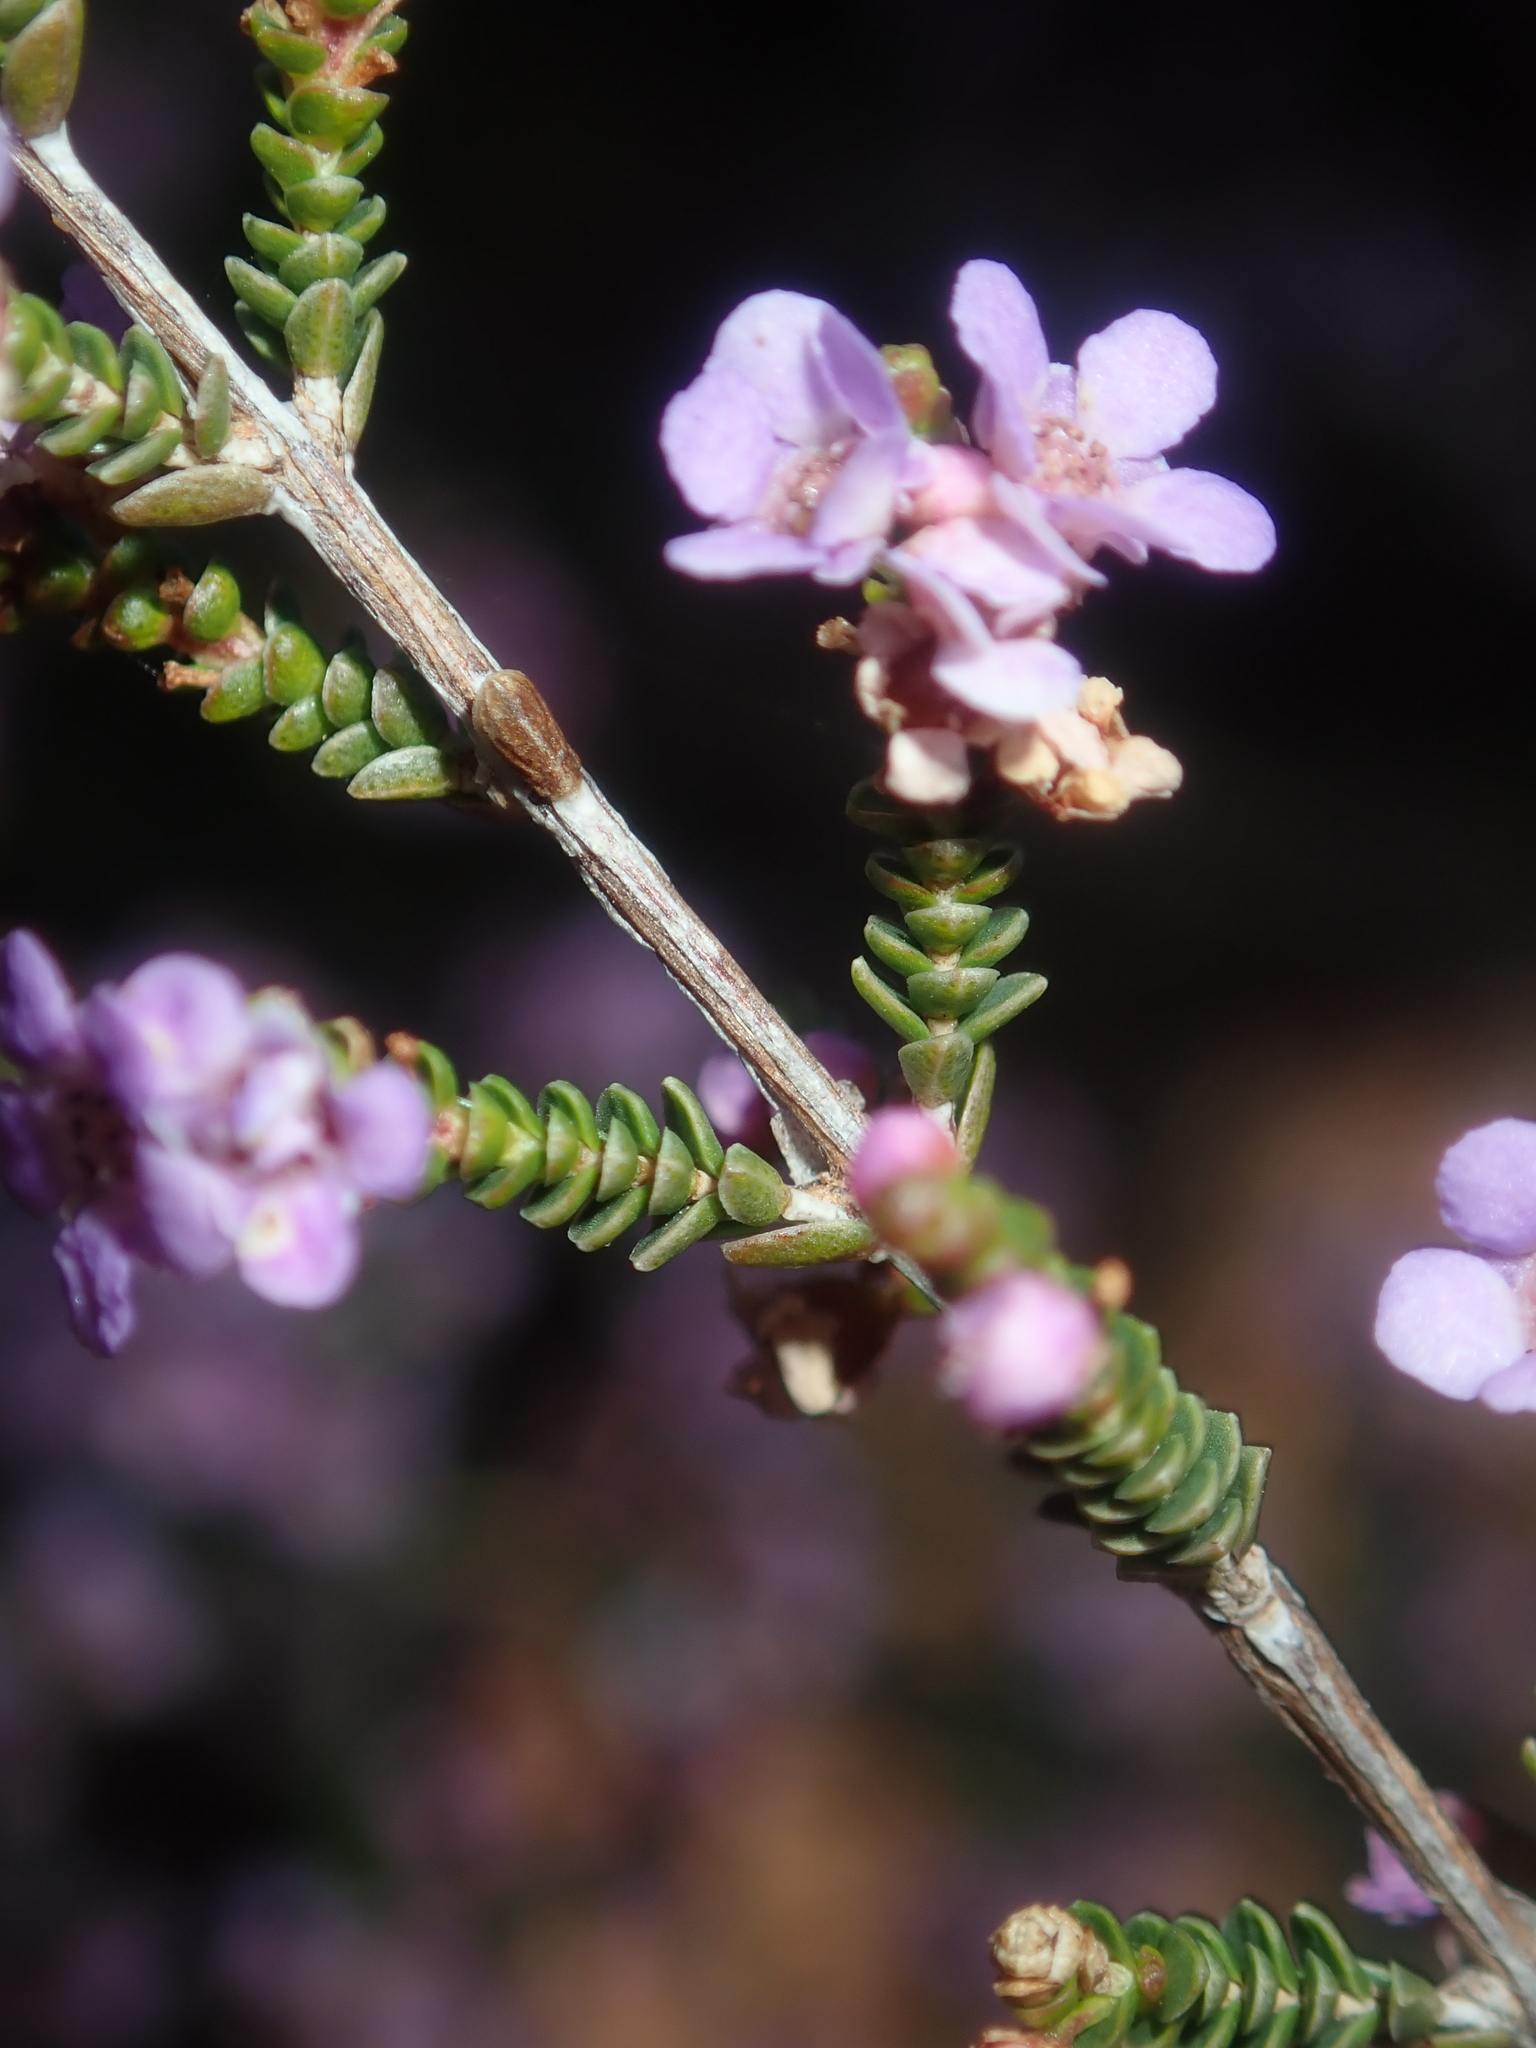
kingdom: Plantae
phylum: Tracheophyta
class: Magnoliopsida
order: Myrtales
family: Myrtaceae
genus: Thryptomene
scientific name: Thryptomene denticulata
